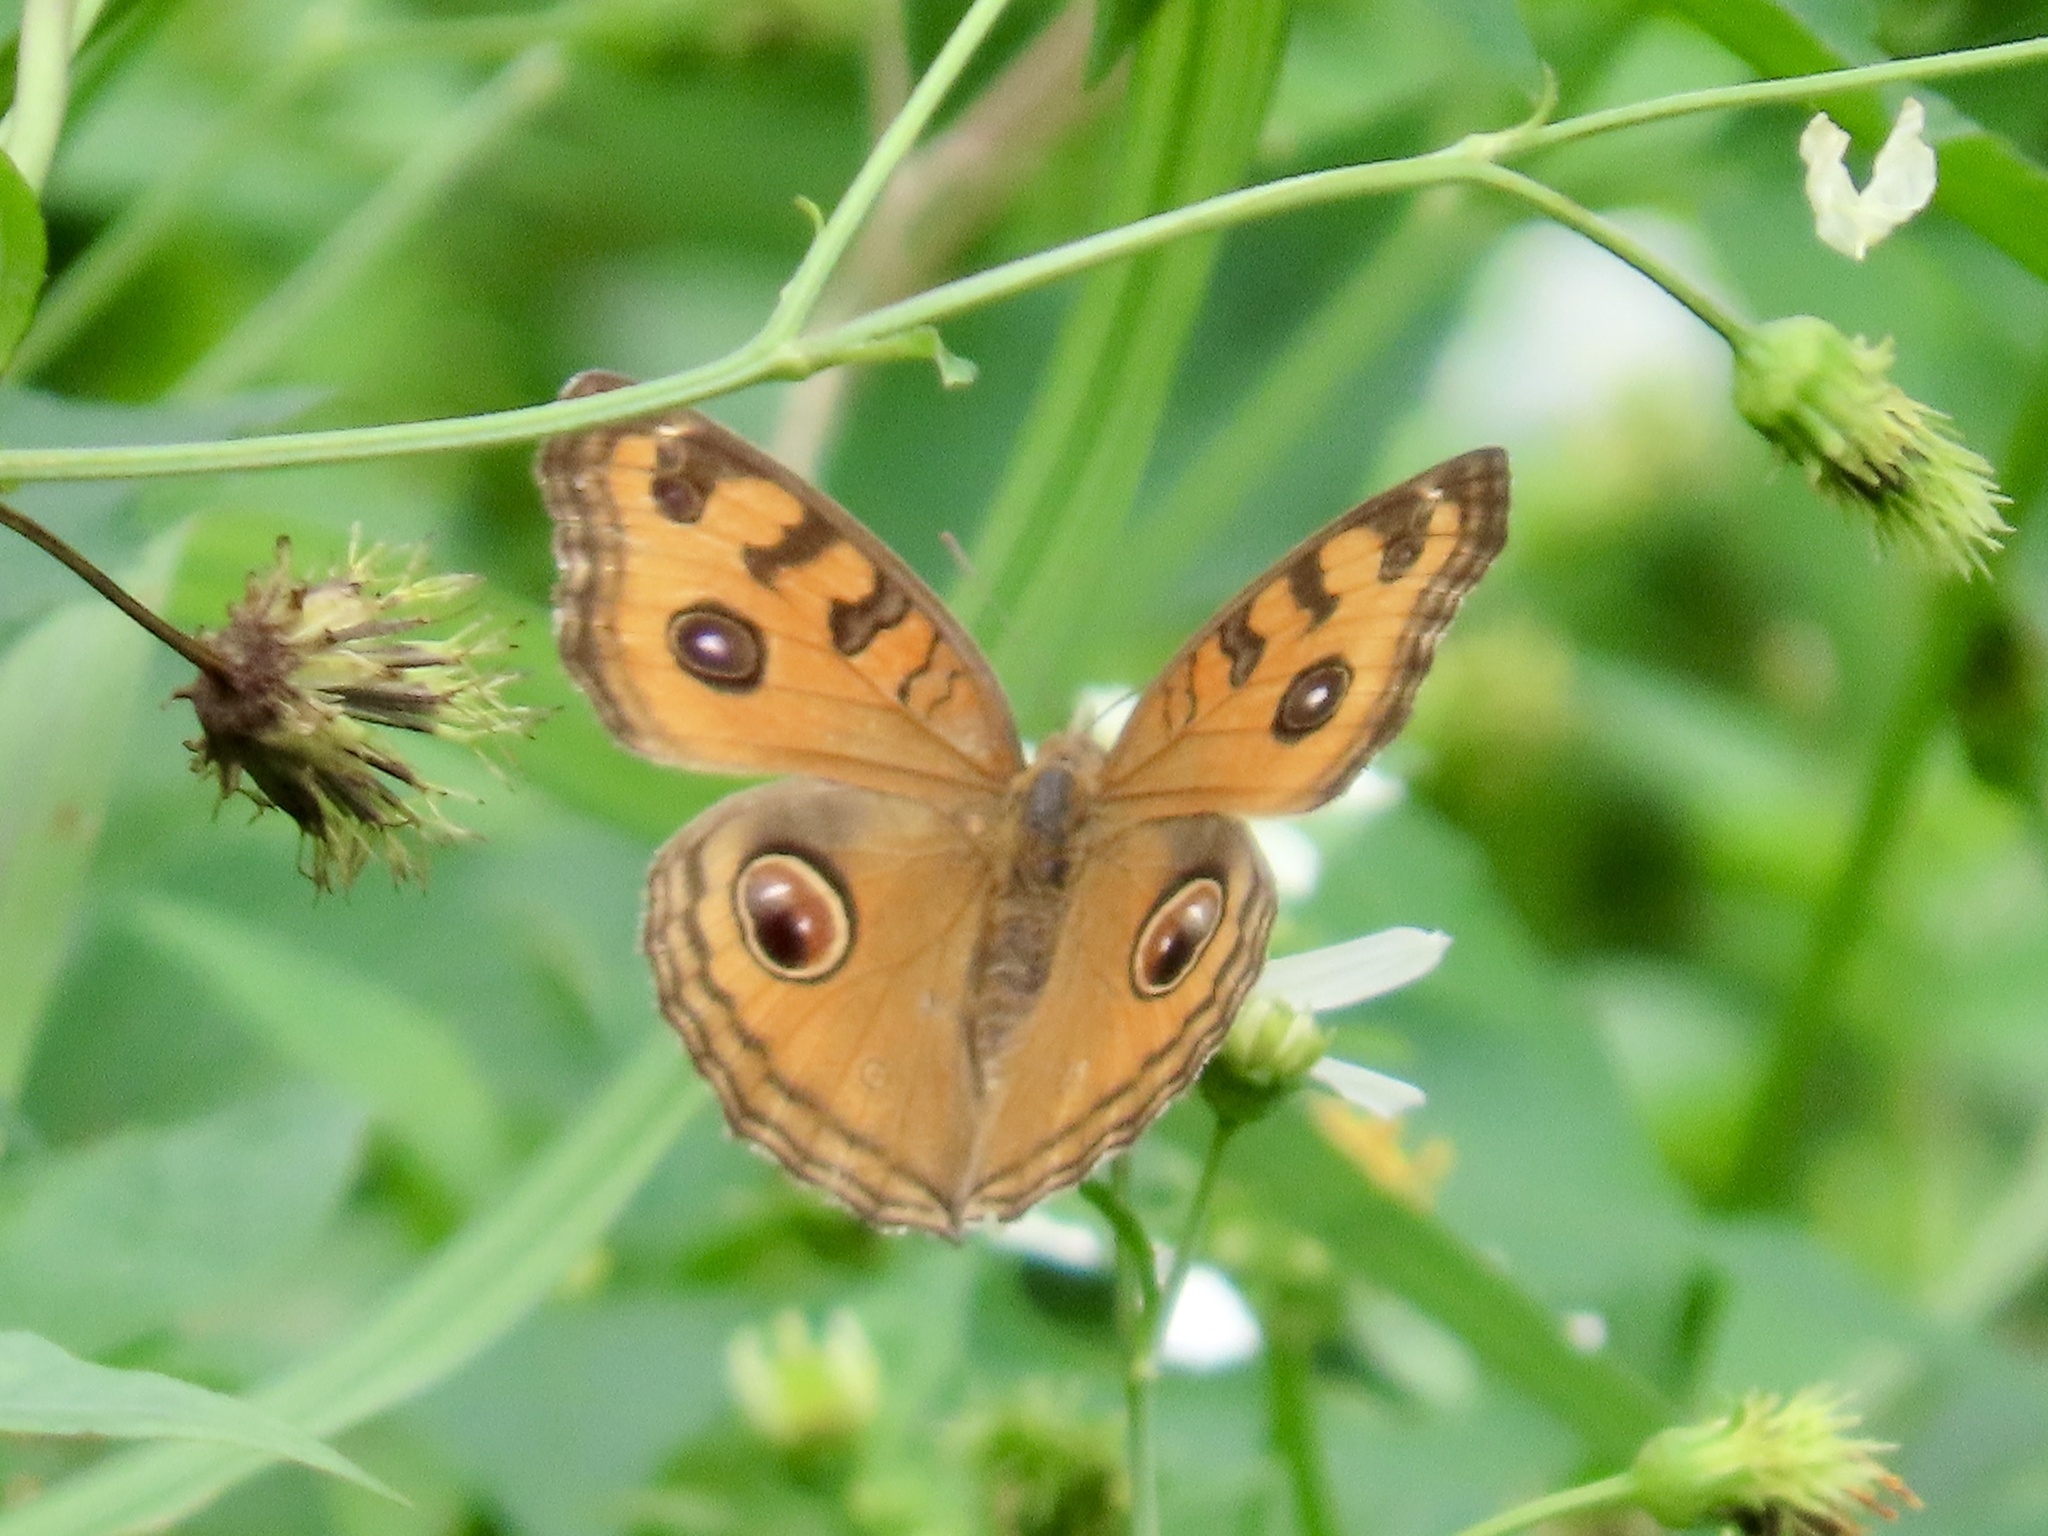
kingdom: Animalia
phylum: Arthropoda
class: Insecta
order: Lepidoptera
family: Nymphalidae
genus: Junonia
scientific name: Junonia almana
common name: Peacock pansy
